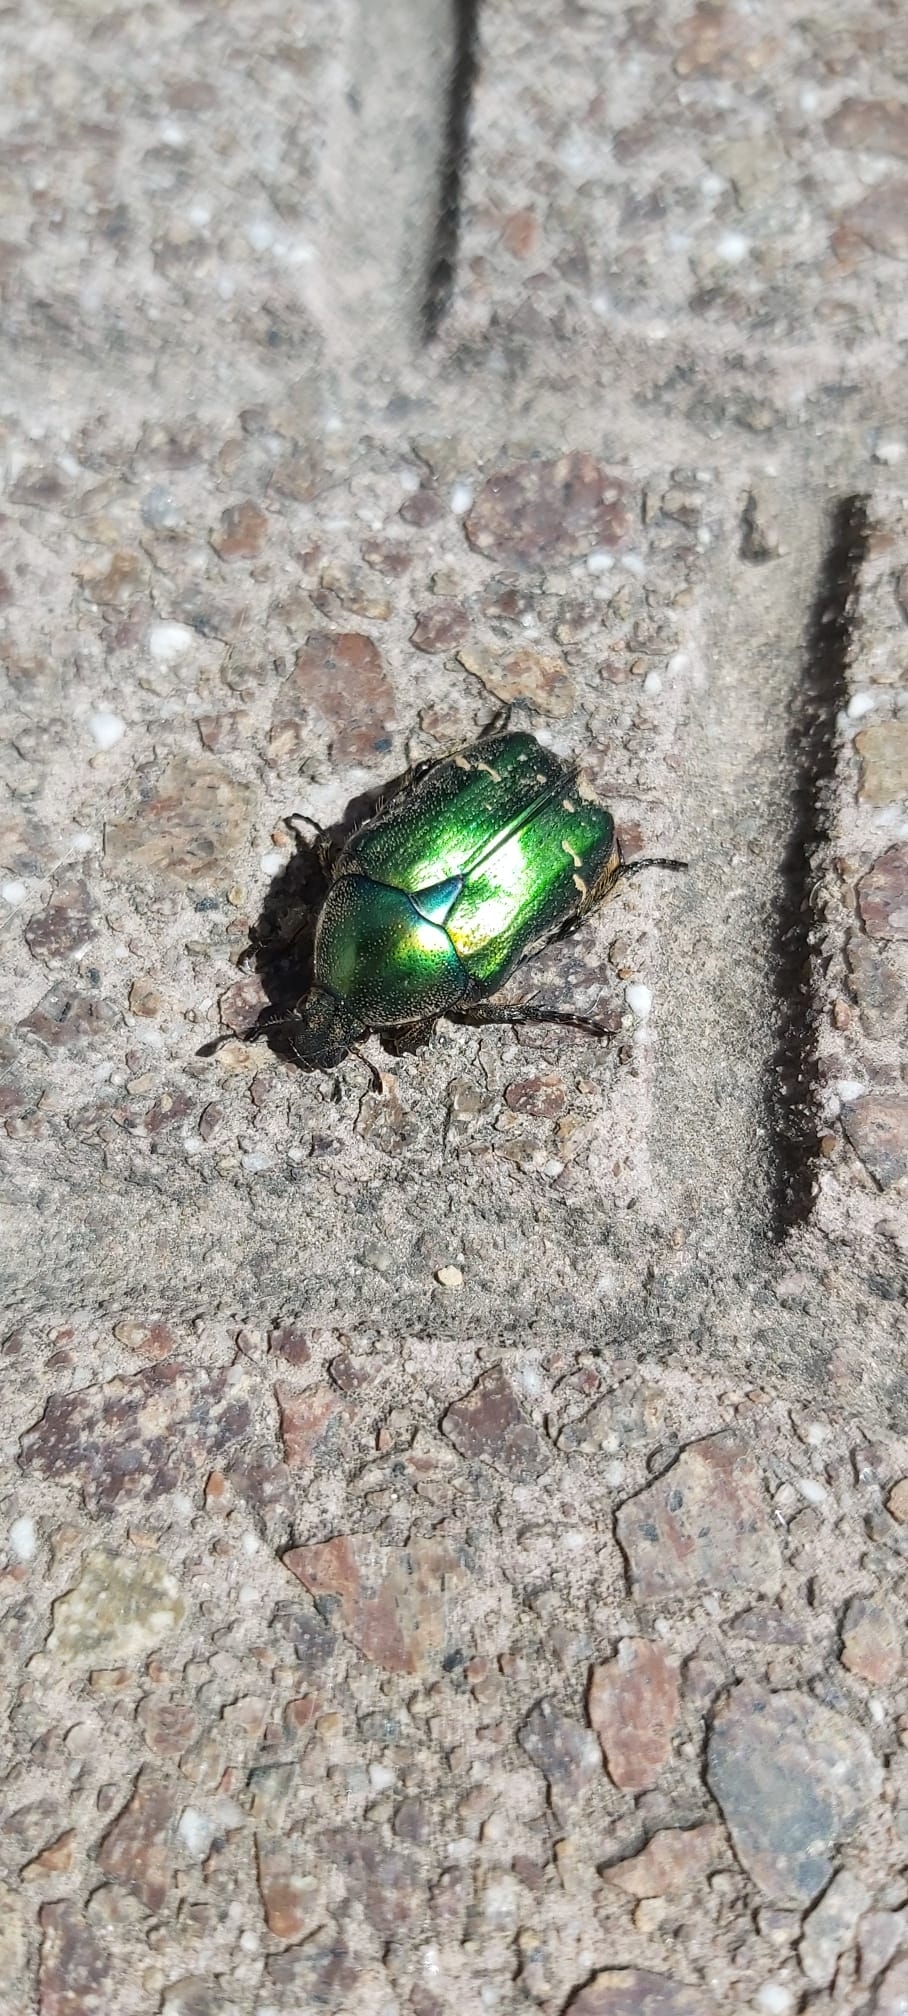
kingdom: Animalia
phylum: Arthropoda
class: Insecta
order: Coleoptera
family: Scarabaeidae
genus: Cetonia
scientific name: Cetonia aurata
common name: Rose chafer
